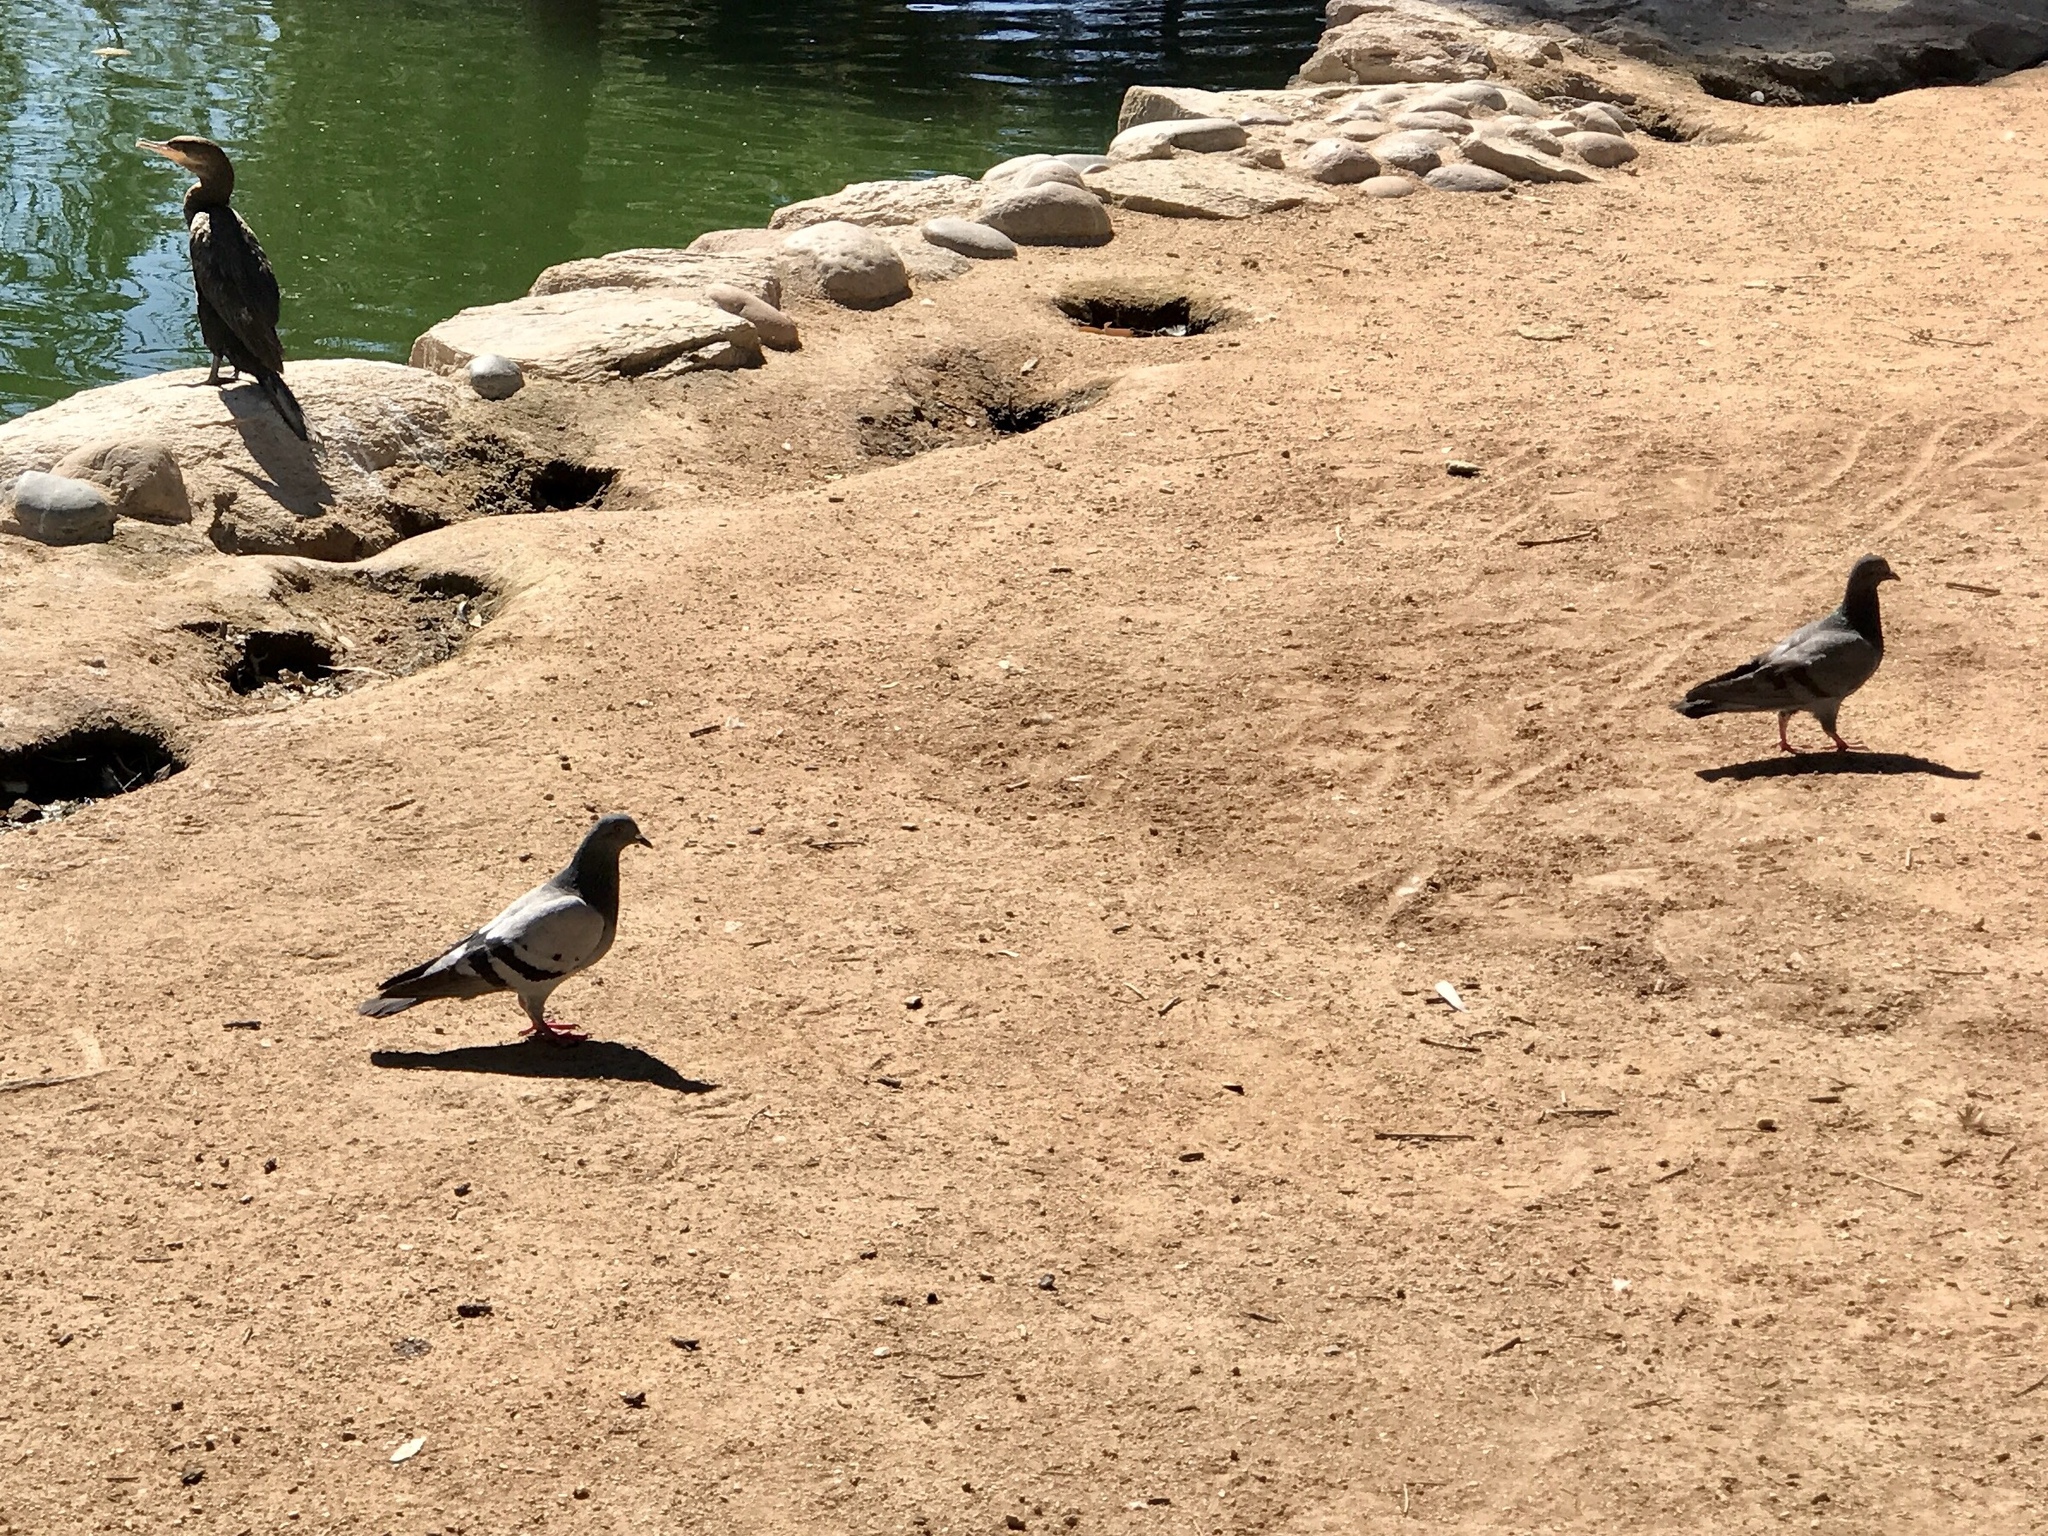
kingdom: Animalia
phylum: Chordata
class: Aves
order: Columbiformes
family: Columbidae
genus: Columba
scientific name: Columba livia
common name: Rock pigeon
